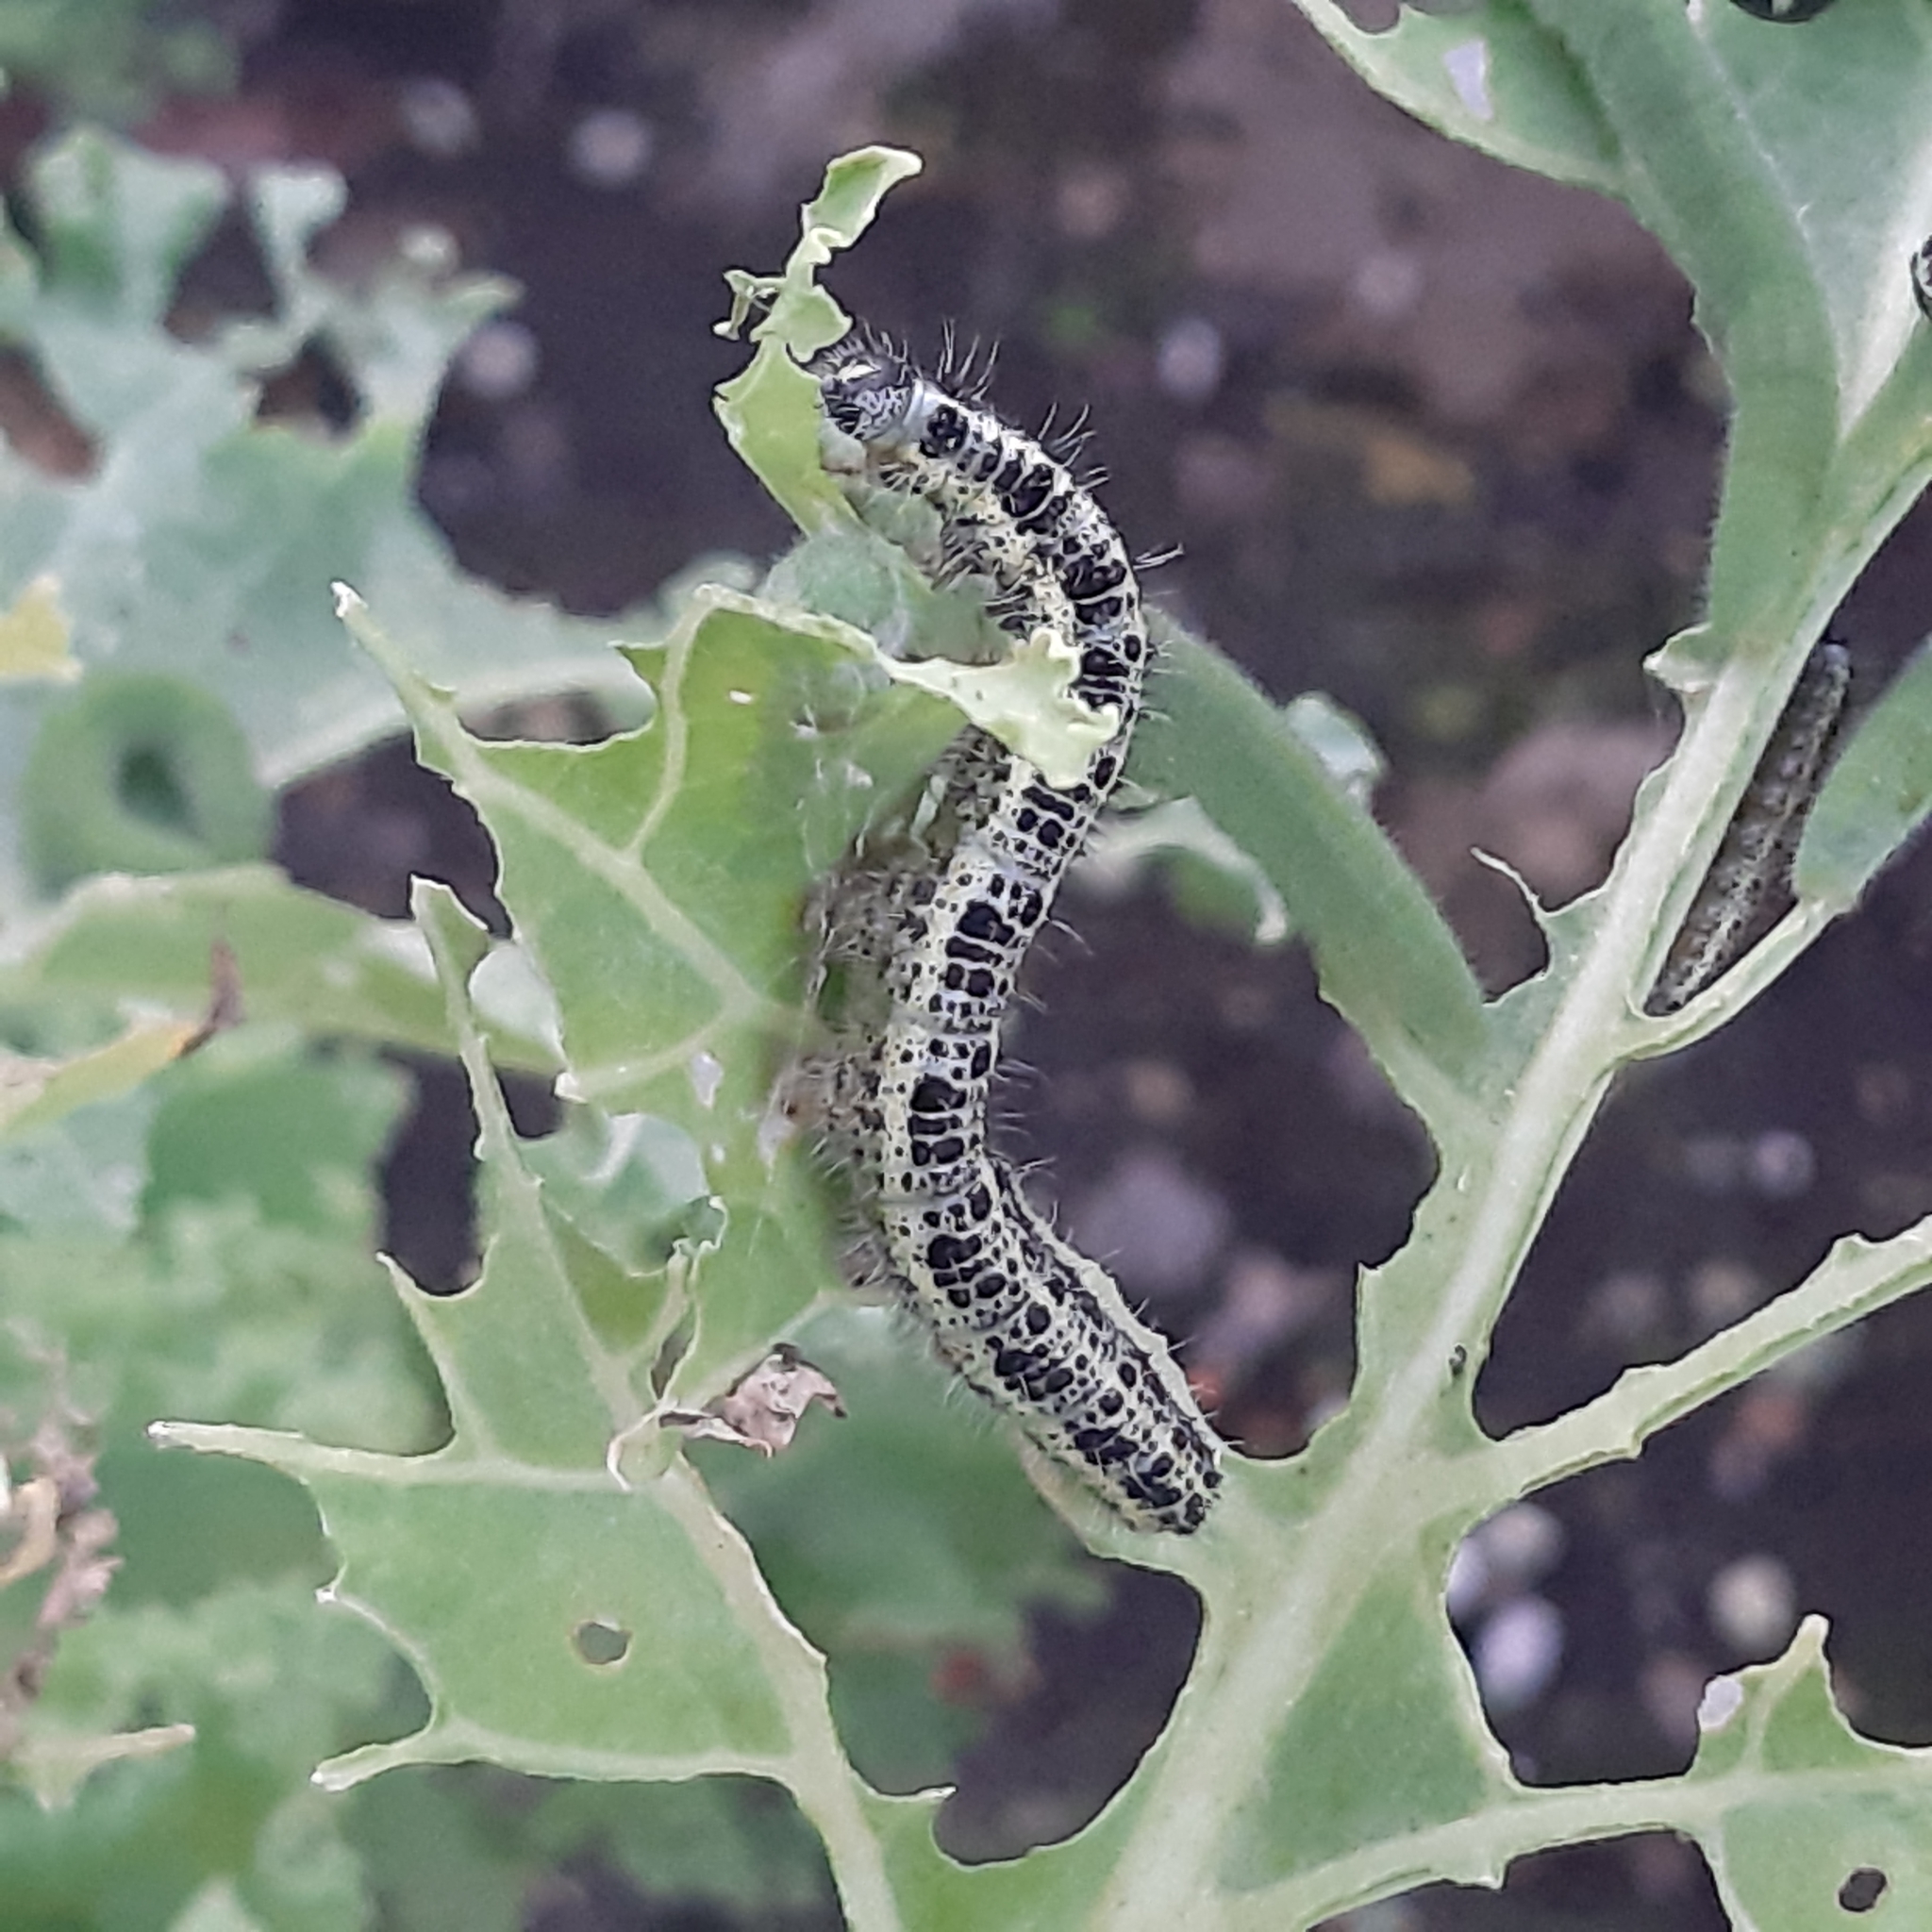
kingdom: Animalia
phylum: Arthropoda
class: Insecta
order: Lepidoptera
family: Pieridae
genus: Pieris
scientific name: Pieris brassicae
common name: Large white
